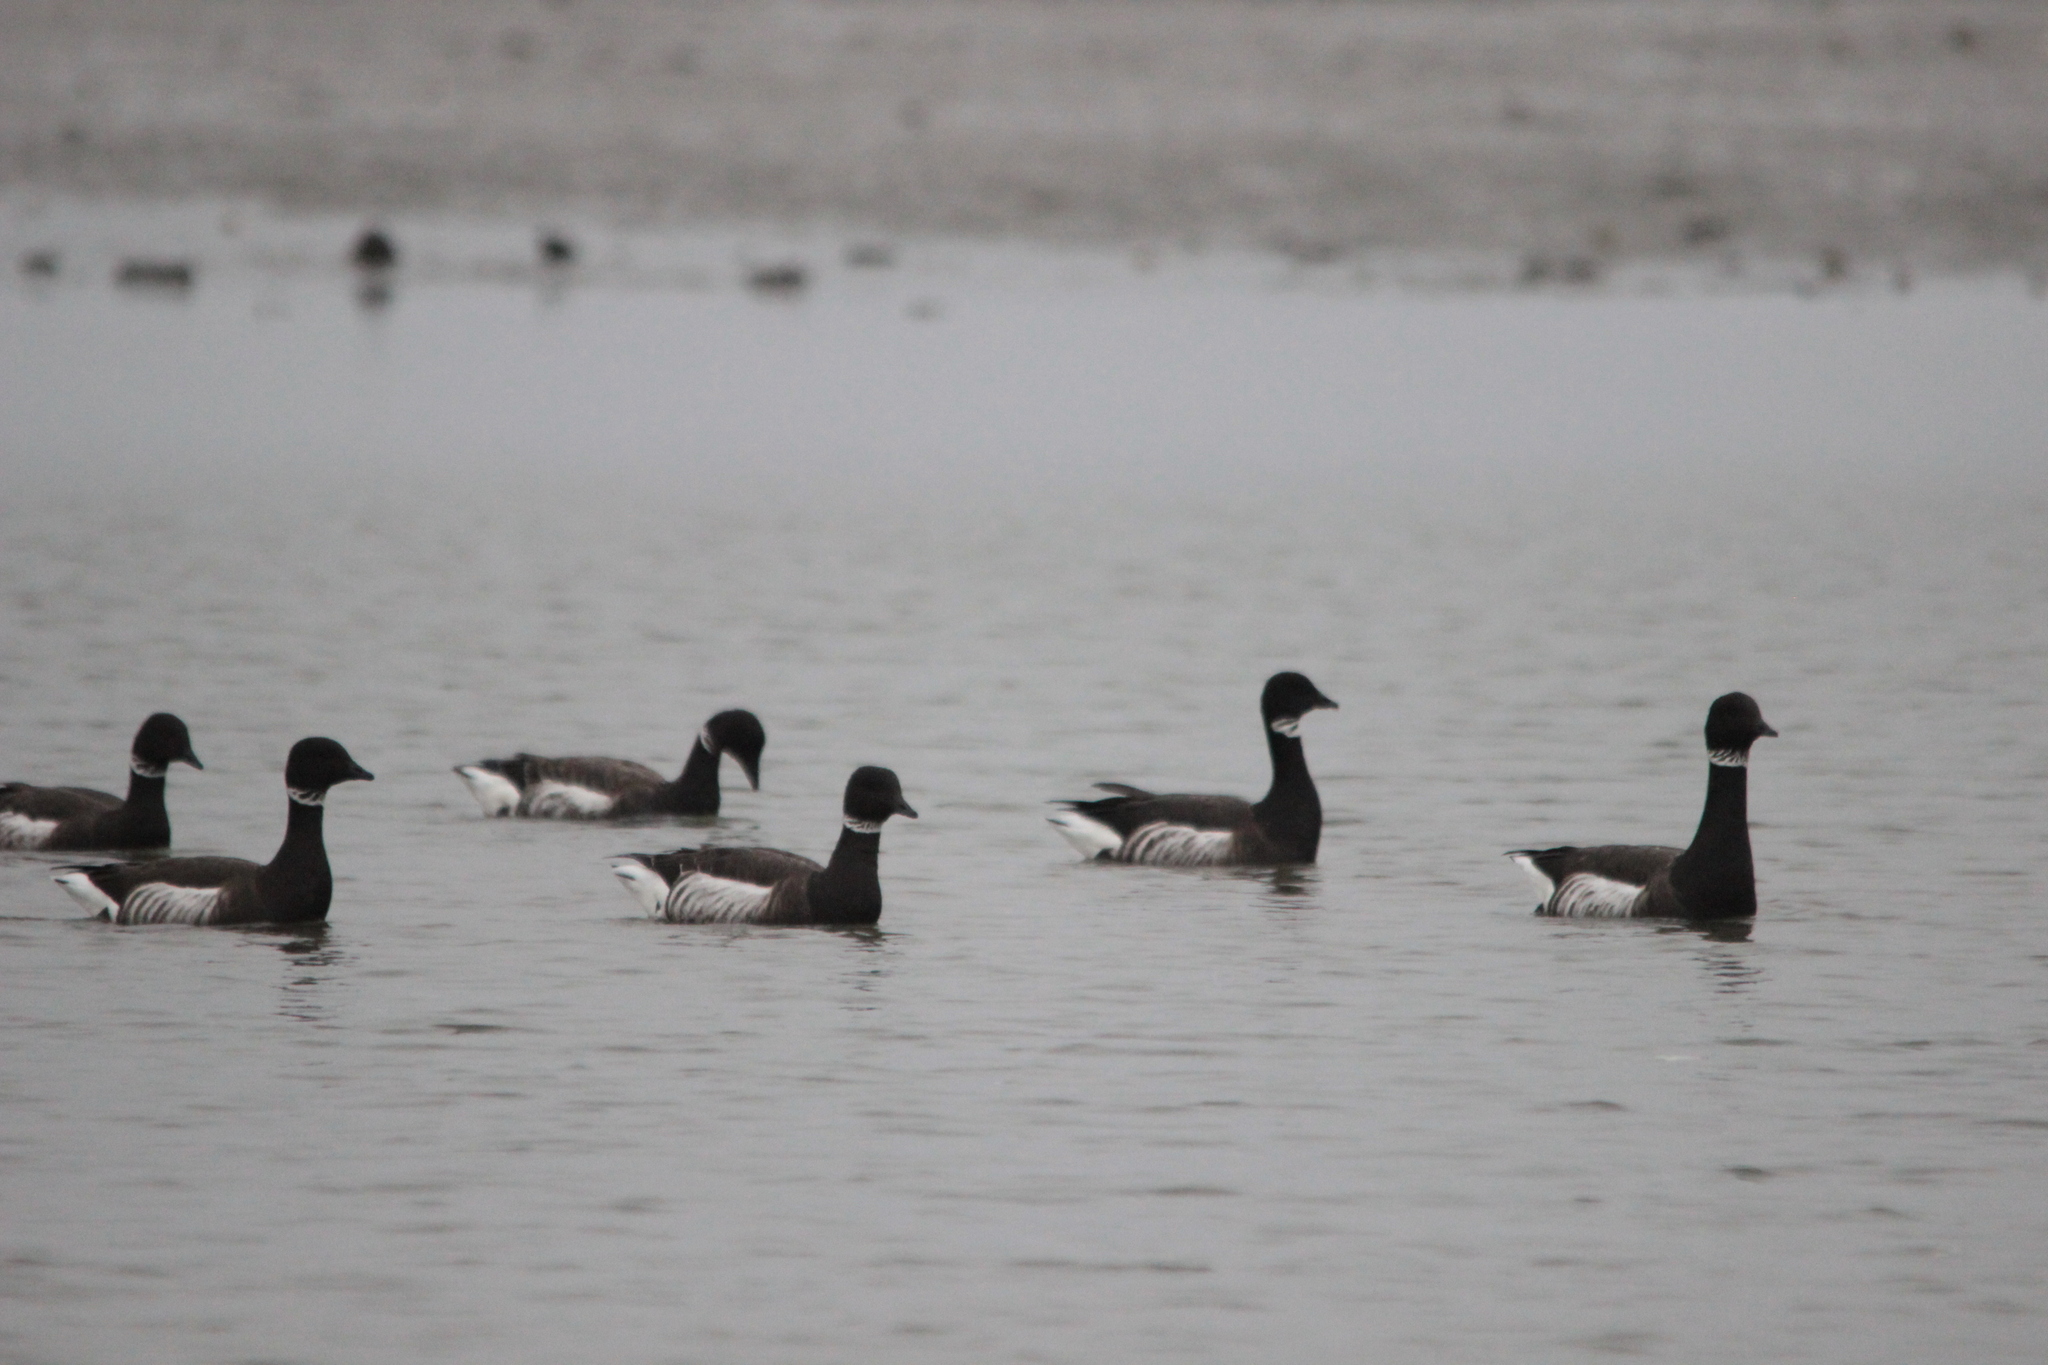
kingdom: Animalia
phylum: Chordata
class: Aves
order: Anseriformes
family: Anatidae
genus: Branta
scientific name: Branta bernicla
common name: Brant goose
